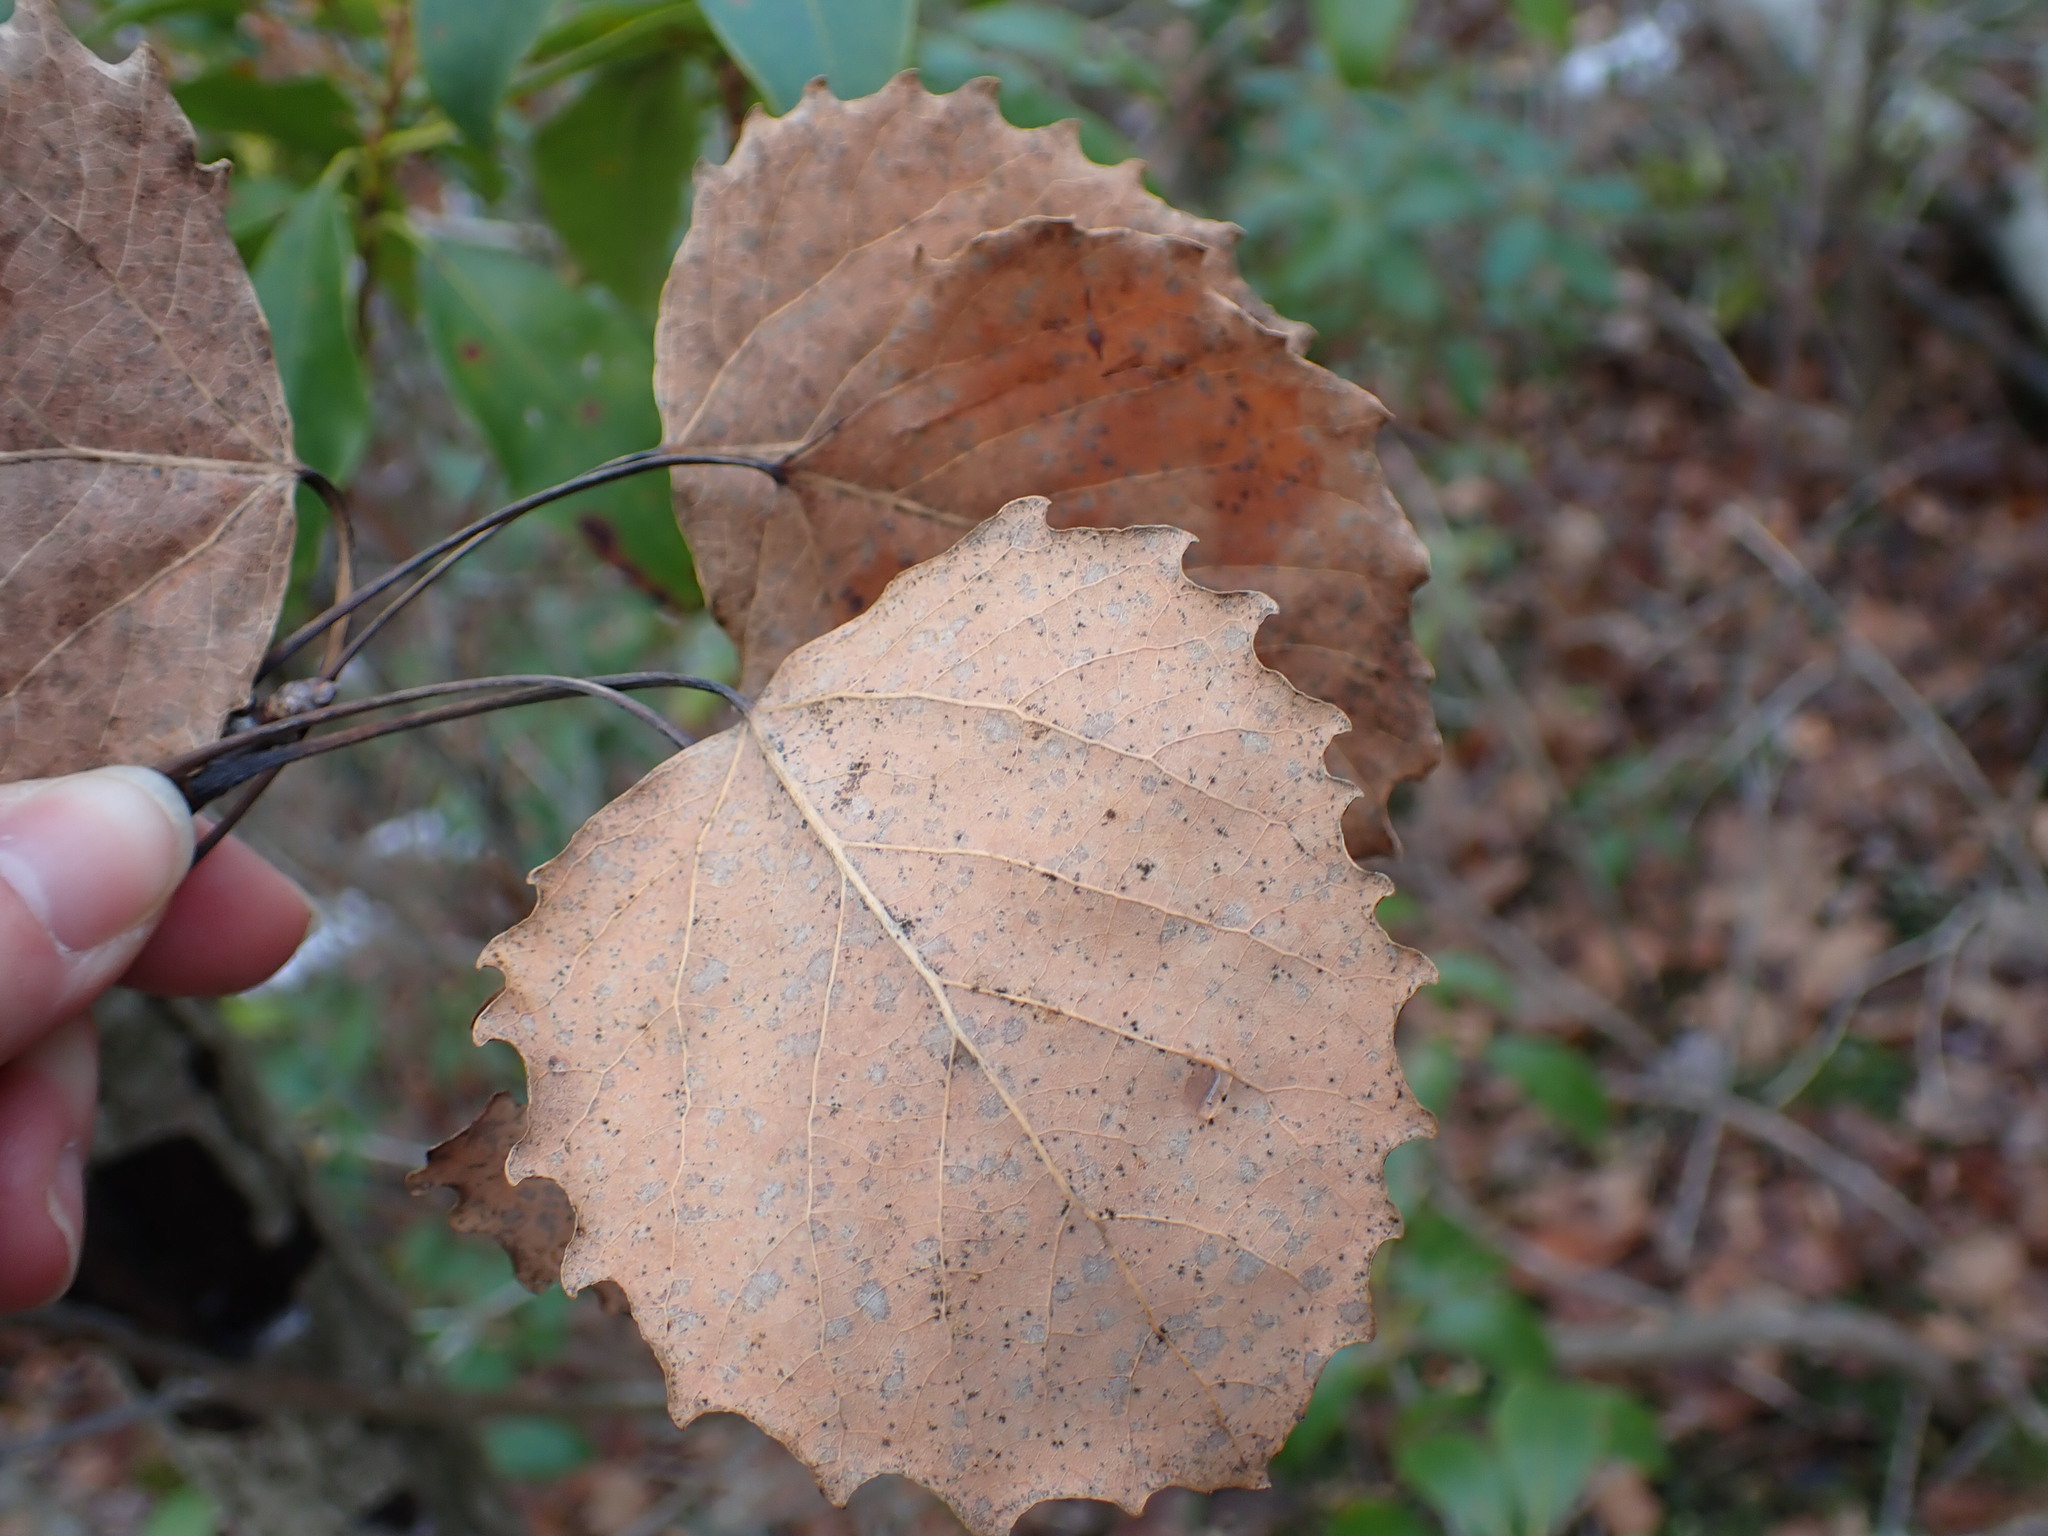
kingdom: Plantae
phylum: Tracheophyta
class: Magnoliopsida
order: Malpighiales
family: Salicaceae
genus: Populus
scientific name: Populus grandidentata
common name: Bigtooth aspen
